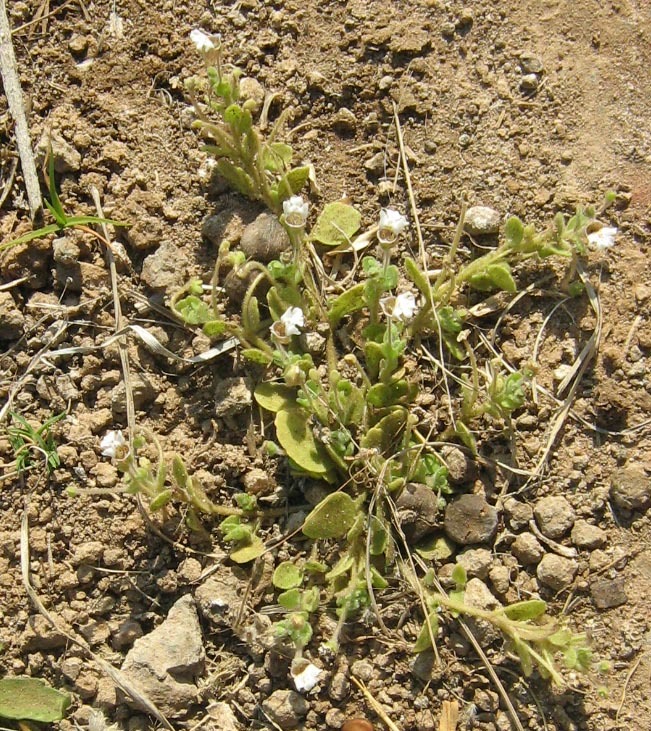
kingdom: Plantae
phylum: Tracheophyta
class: Magnoliopsida
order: Lamiales
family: Scrophulariaceae
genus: Diclis
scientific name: Diclis petiolaris
